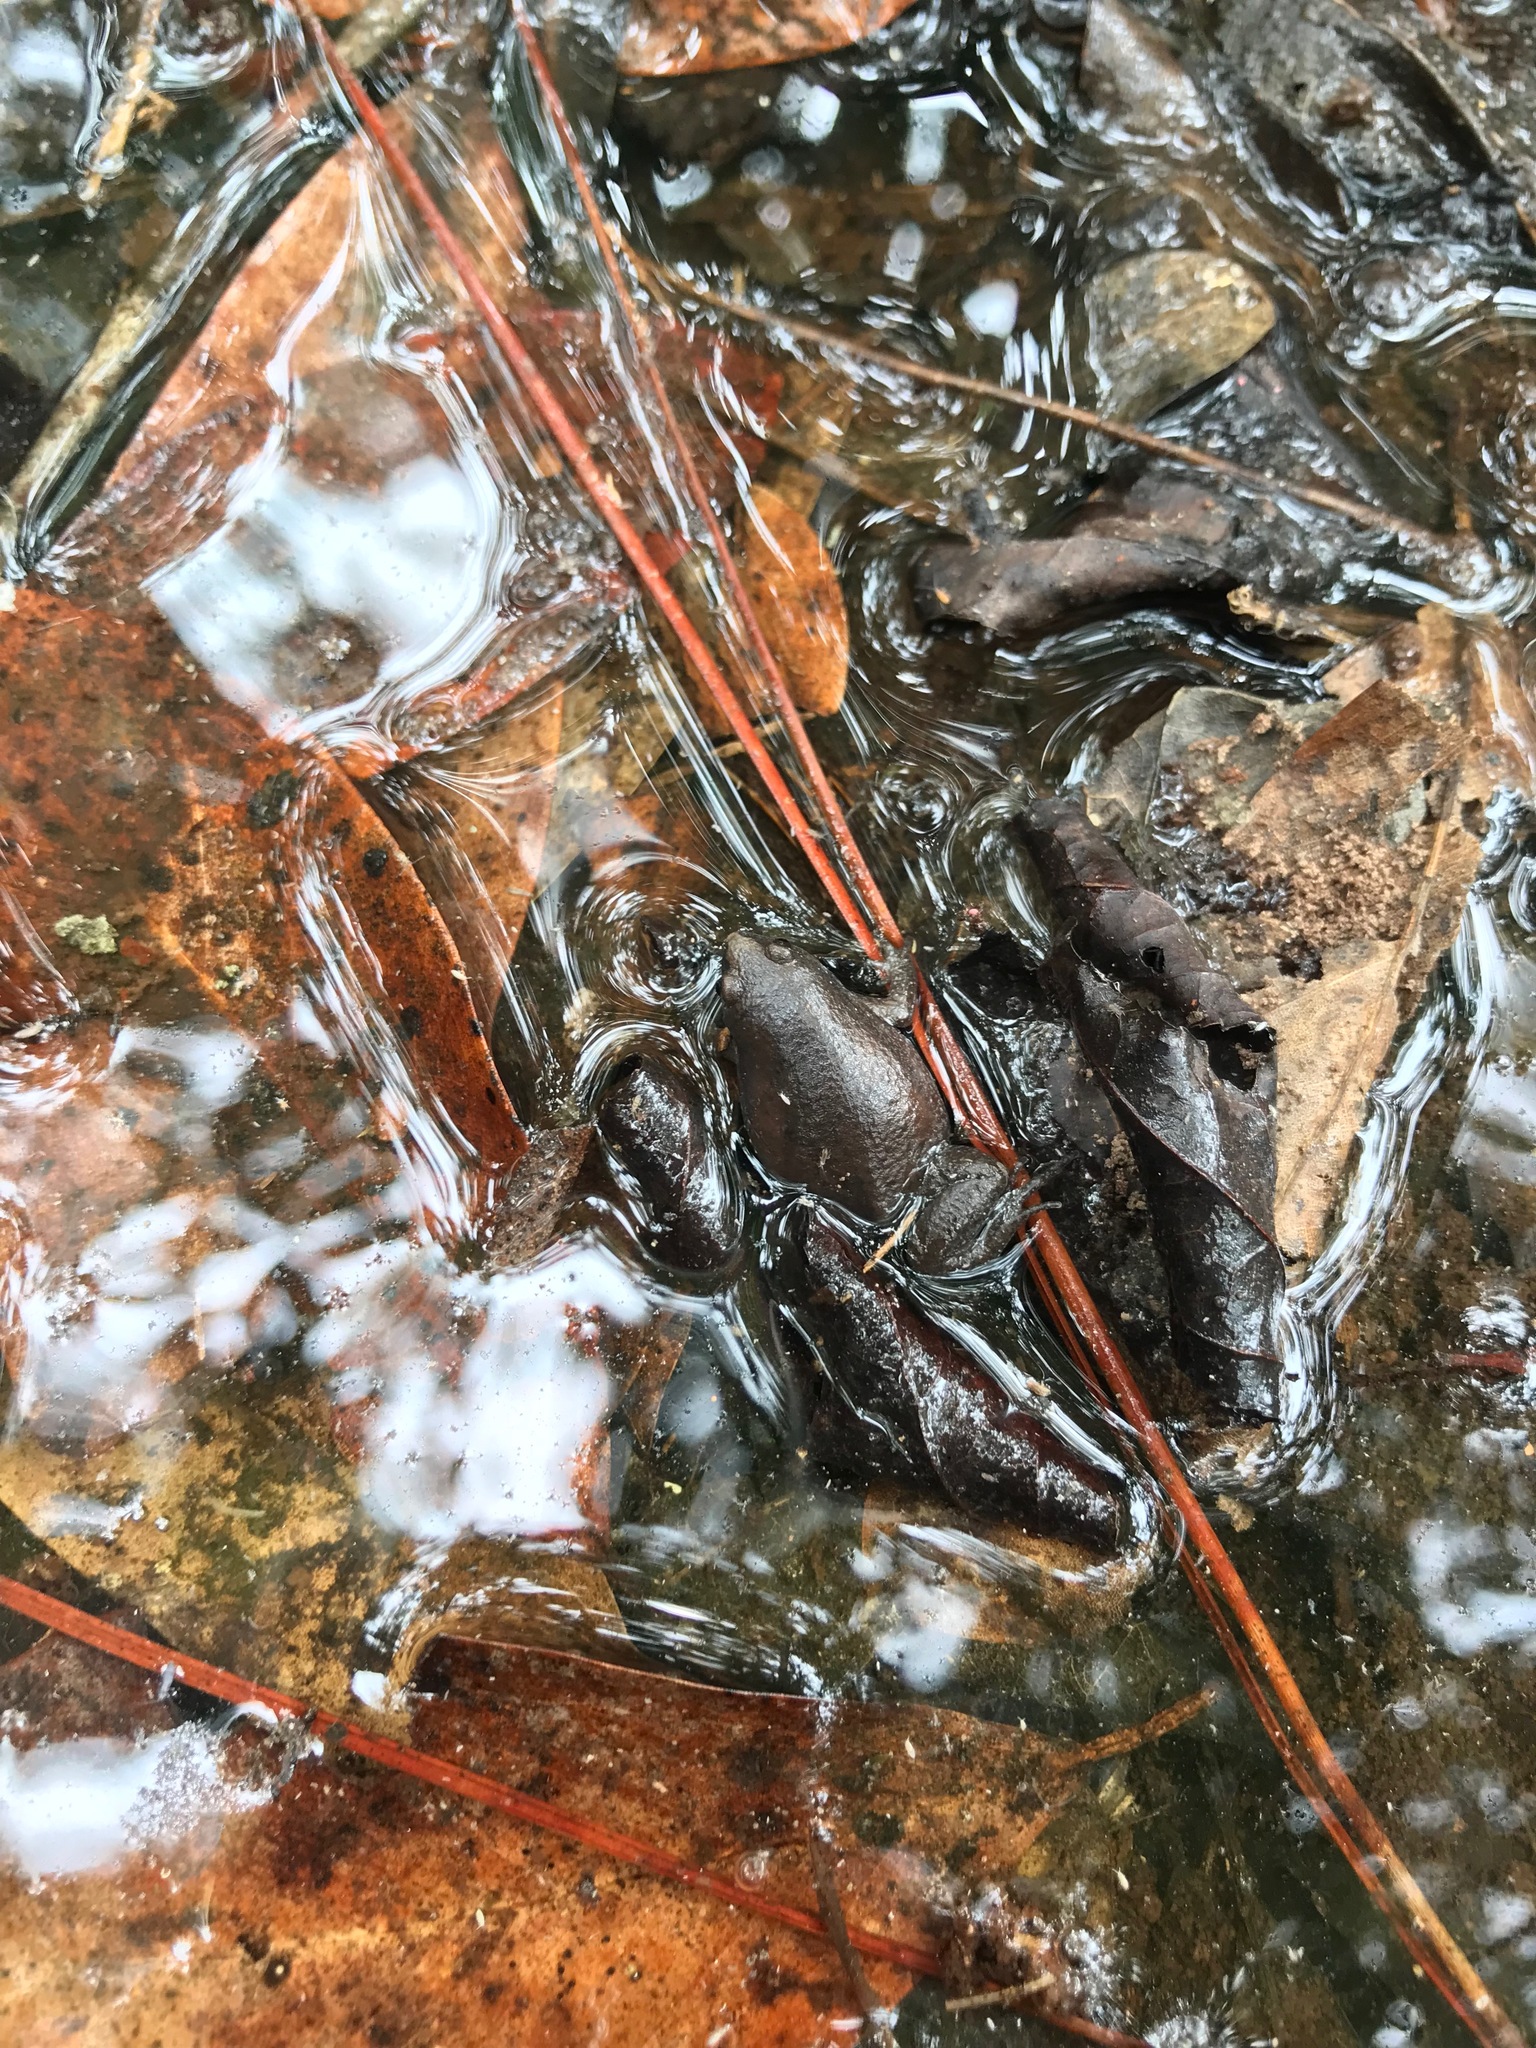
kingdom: Animalia
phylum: Chordata
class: Amphibia
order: Anura
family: Microhylidae
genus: Gastrophryne
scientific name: Gastrophryne carolinensis
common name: Eastern narrowmouth toad
